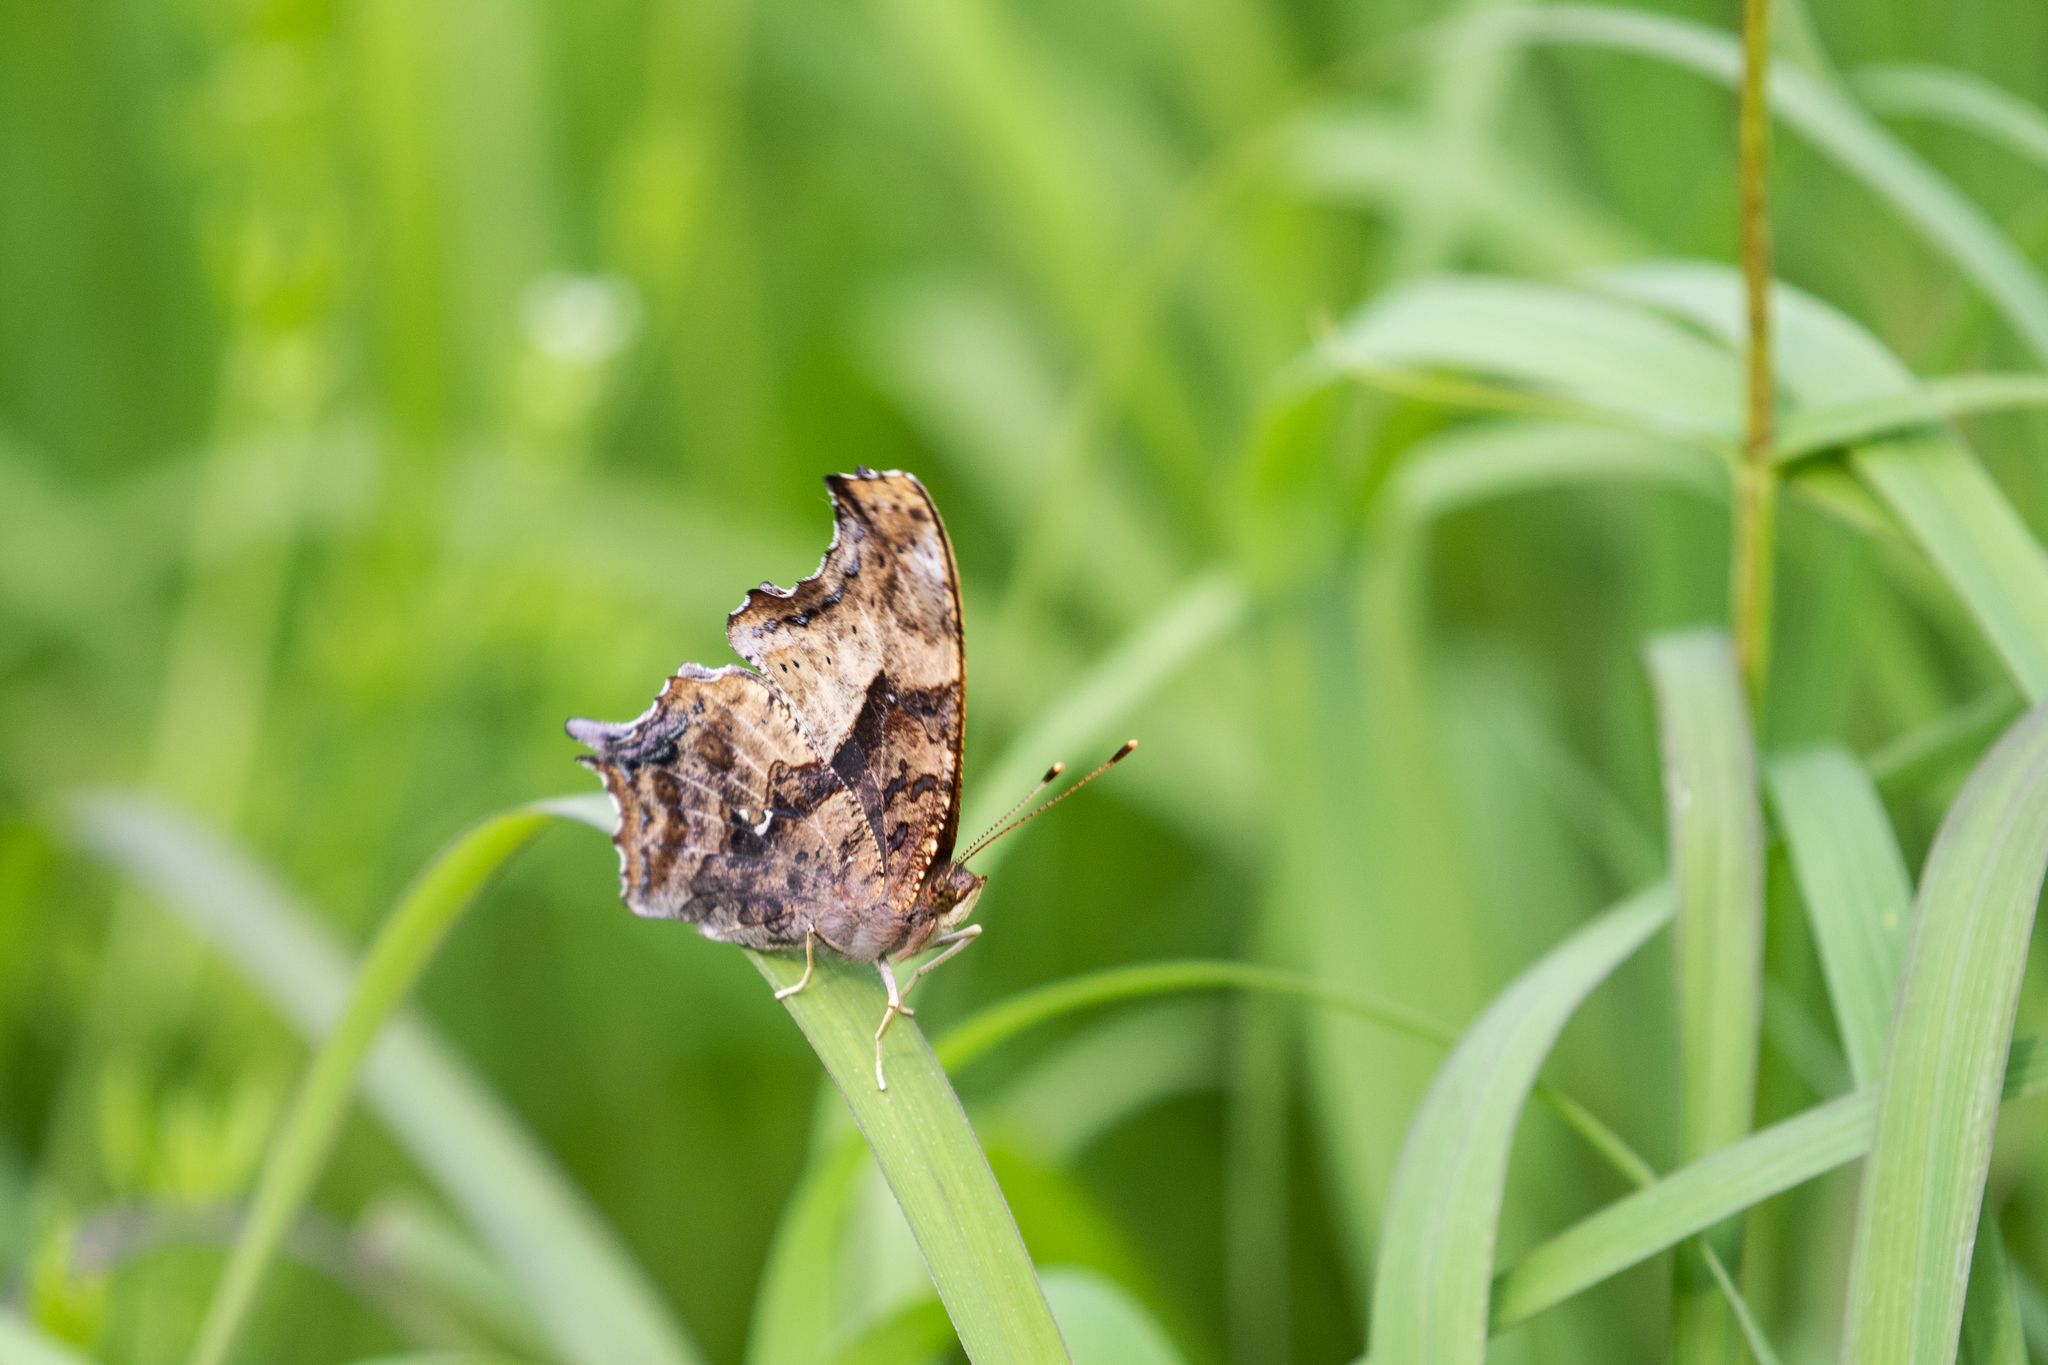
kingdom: Animalia
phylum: Arthropoda
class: Insecta
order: Lepidoptera
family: Nymphalidae
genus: Polygonia
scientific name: Polygonia interrogationis
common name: Question mark
